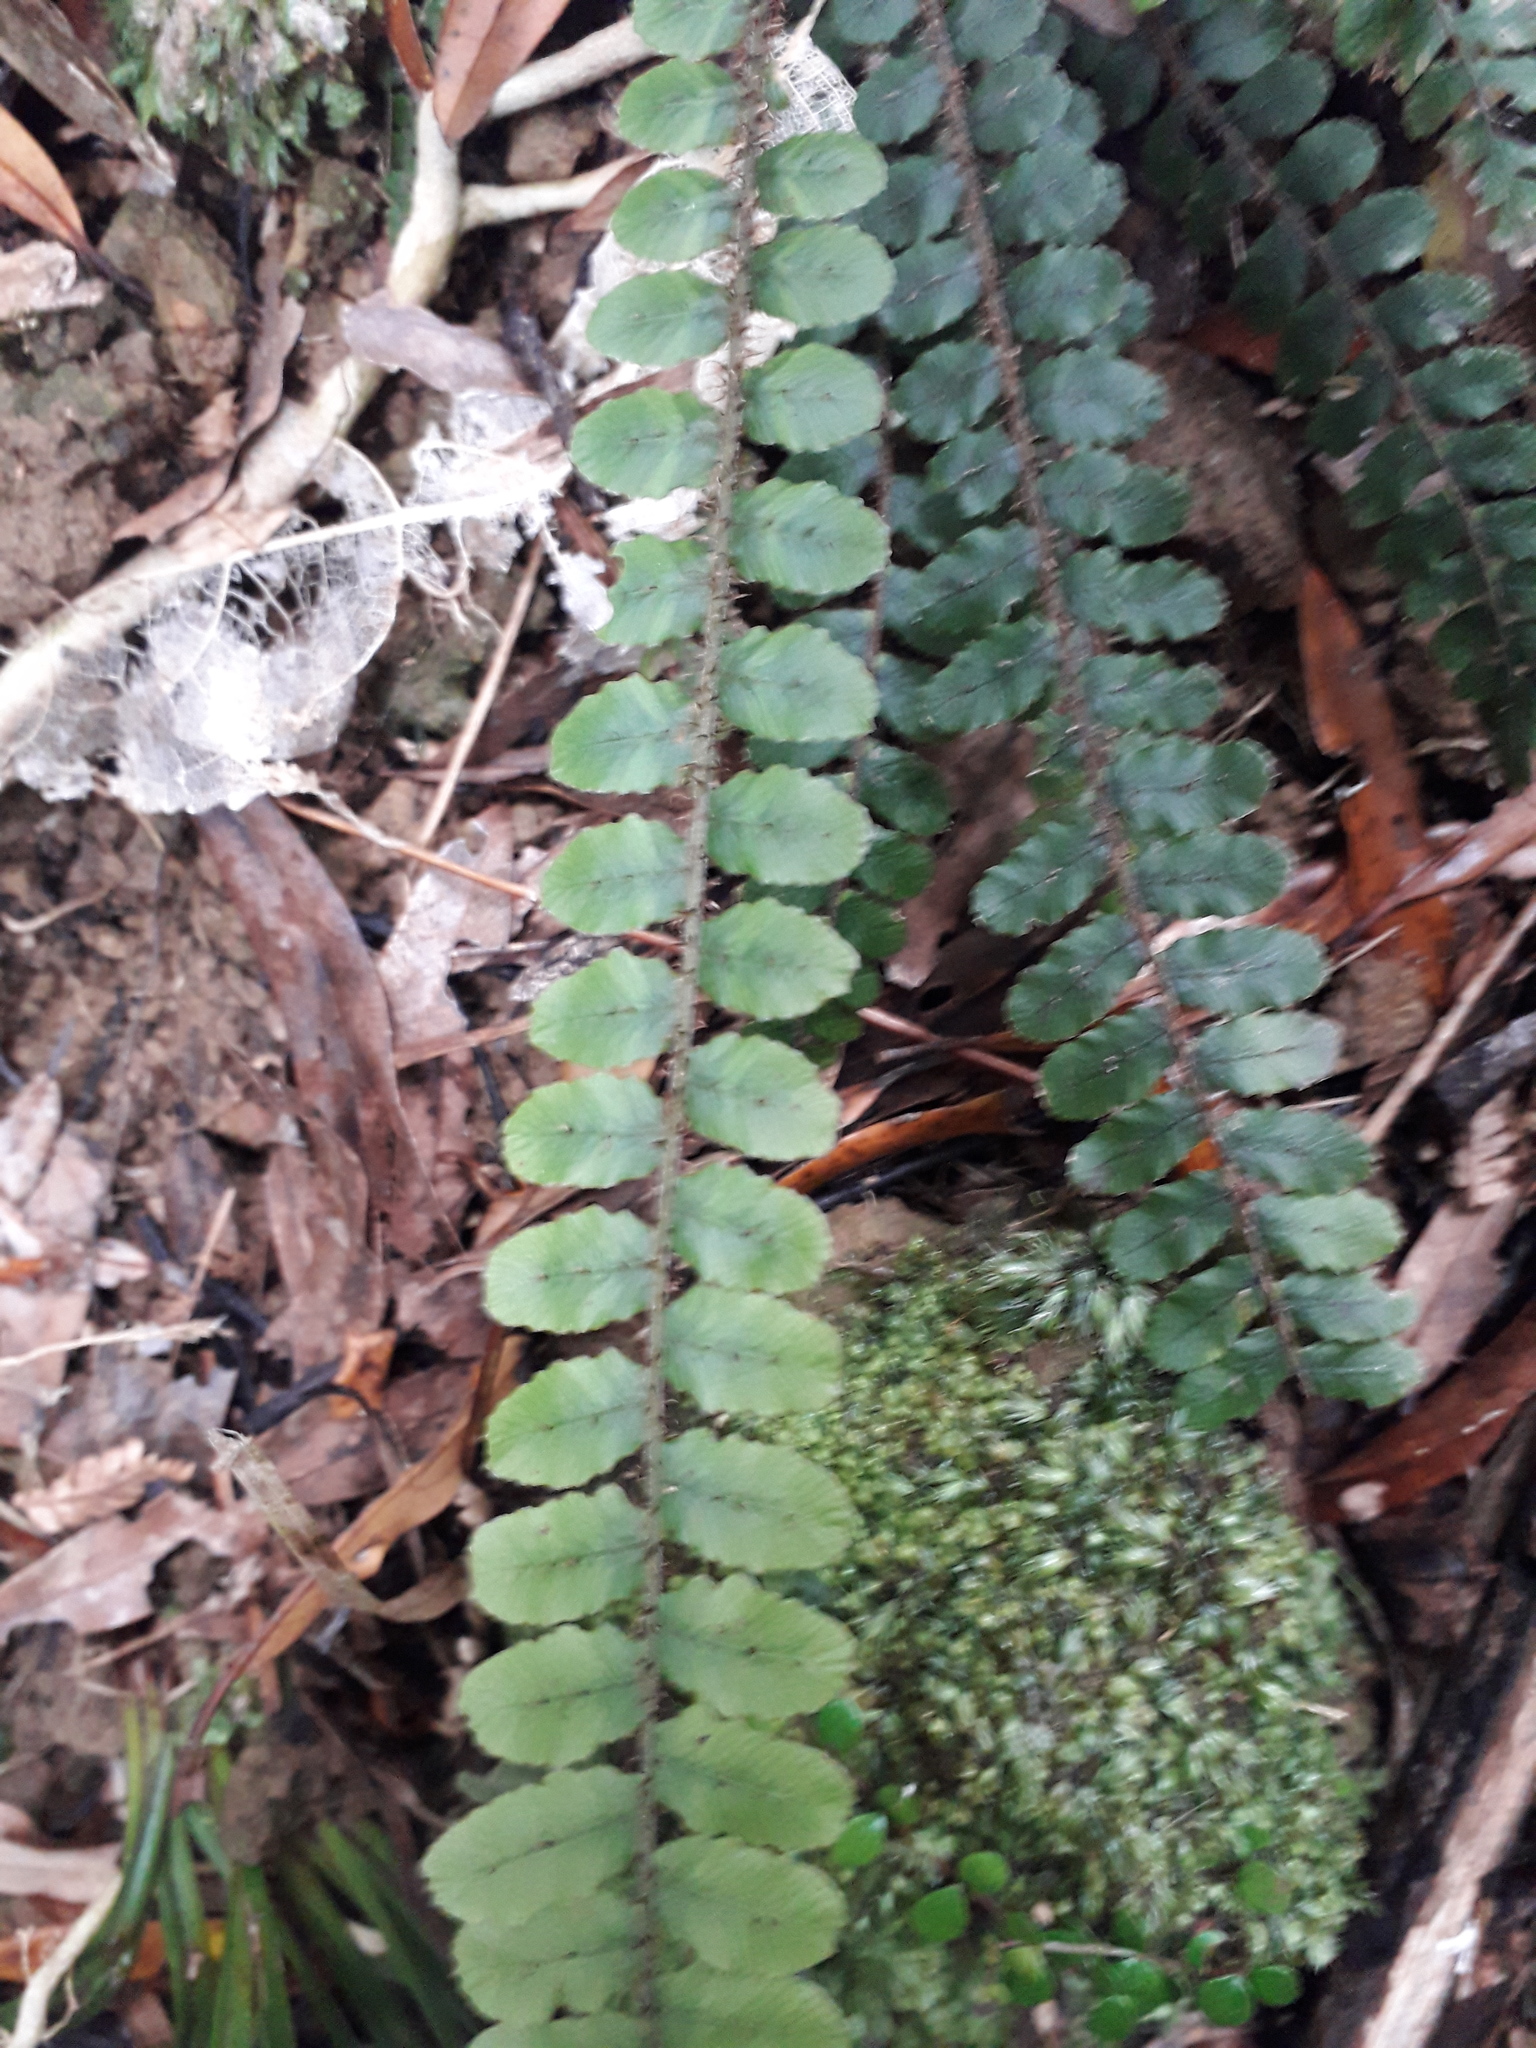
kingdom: Plantae
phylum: Tracheophyta
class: Polypodiopsida
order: Polypodiales
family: Blechnaceae
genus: Cranfillia
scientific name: Cranfillia fluviatilis
